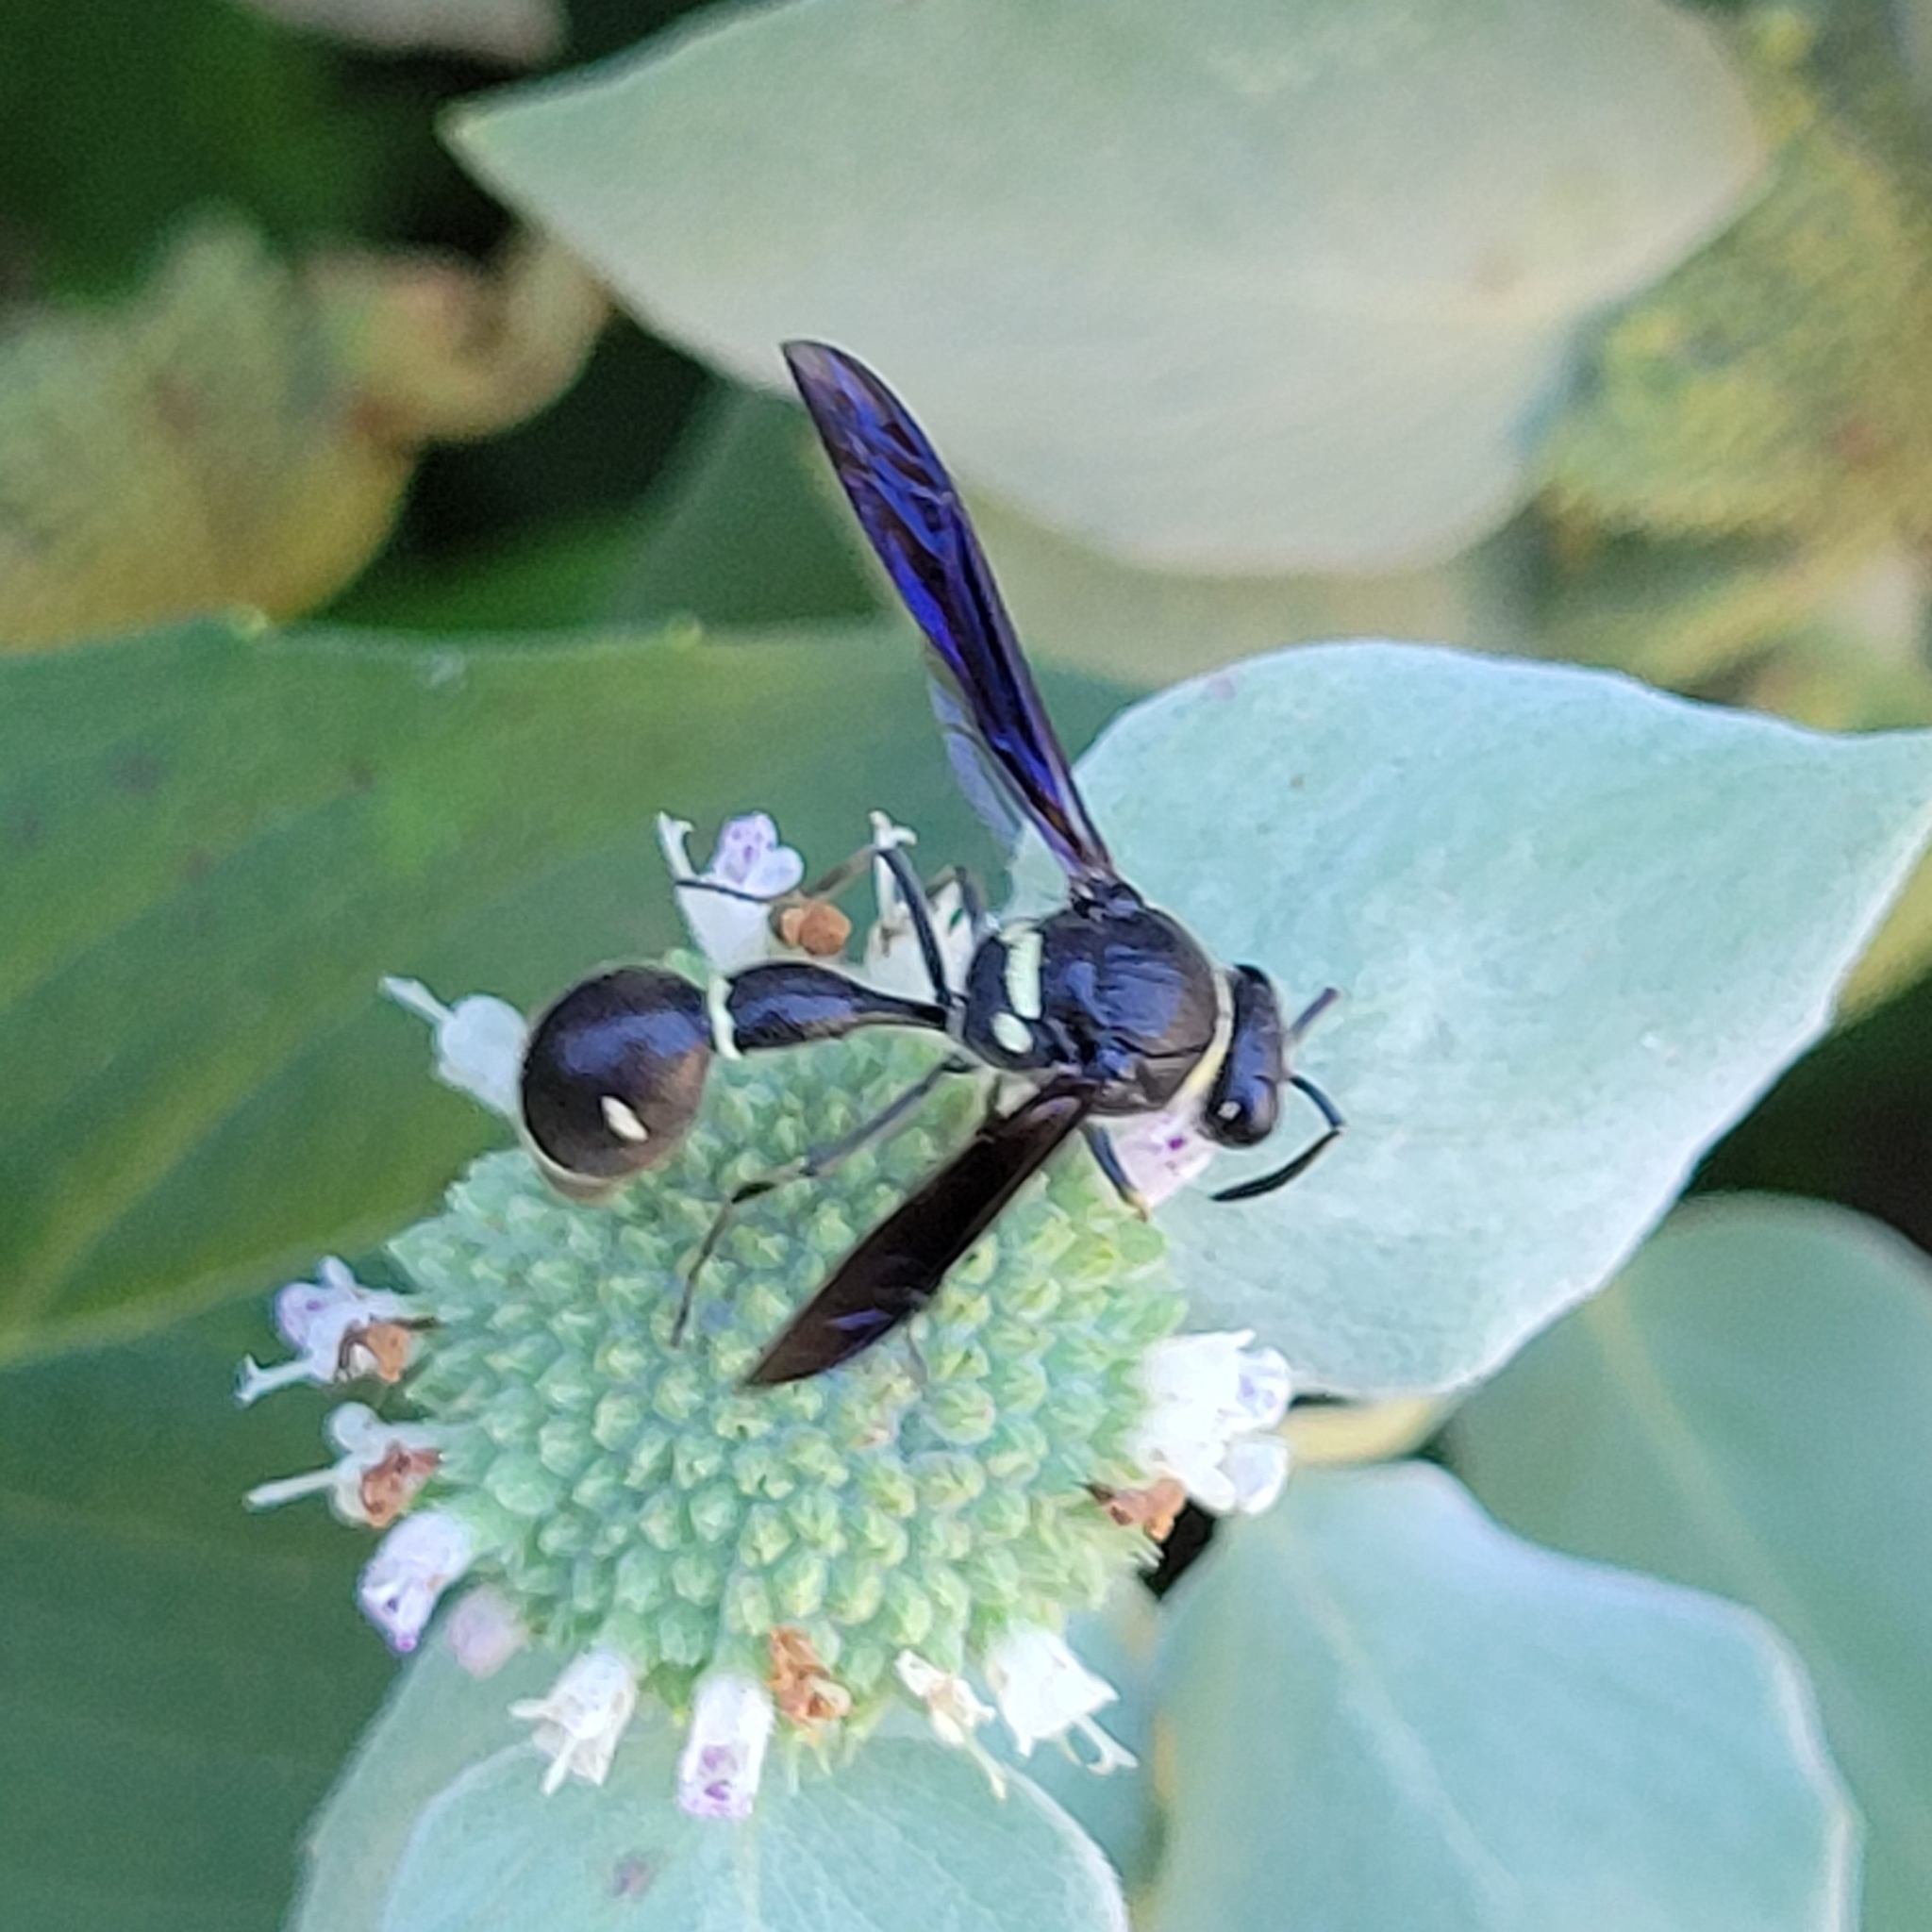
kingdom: Animalia
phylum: Arthropoda
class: Insecta
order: Hymenoptera
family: Vespidae
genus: Eumenes
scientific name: Eumenes fraternus
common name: Fraternal potter wasp
